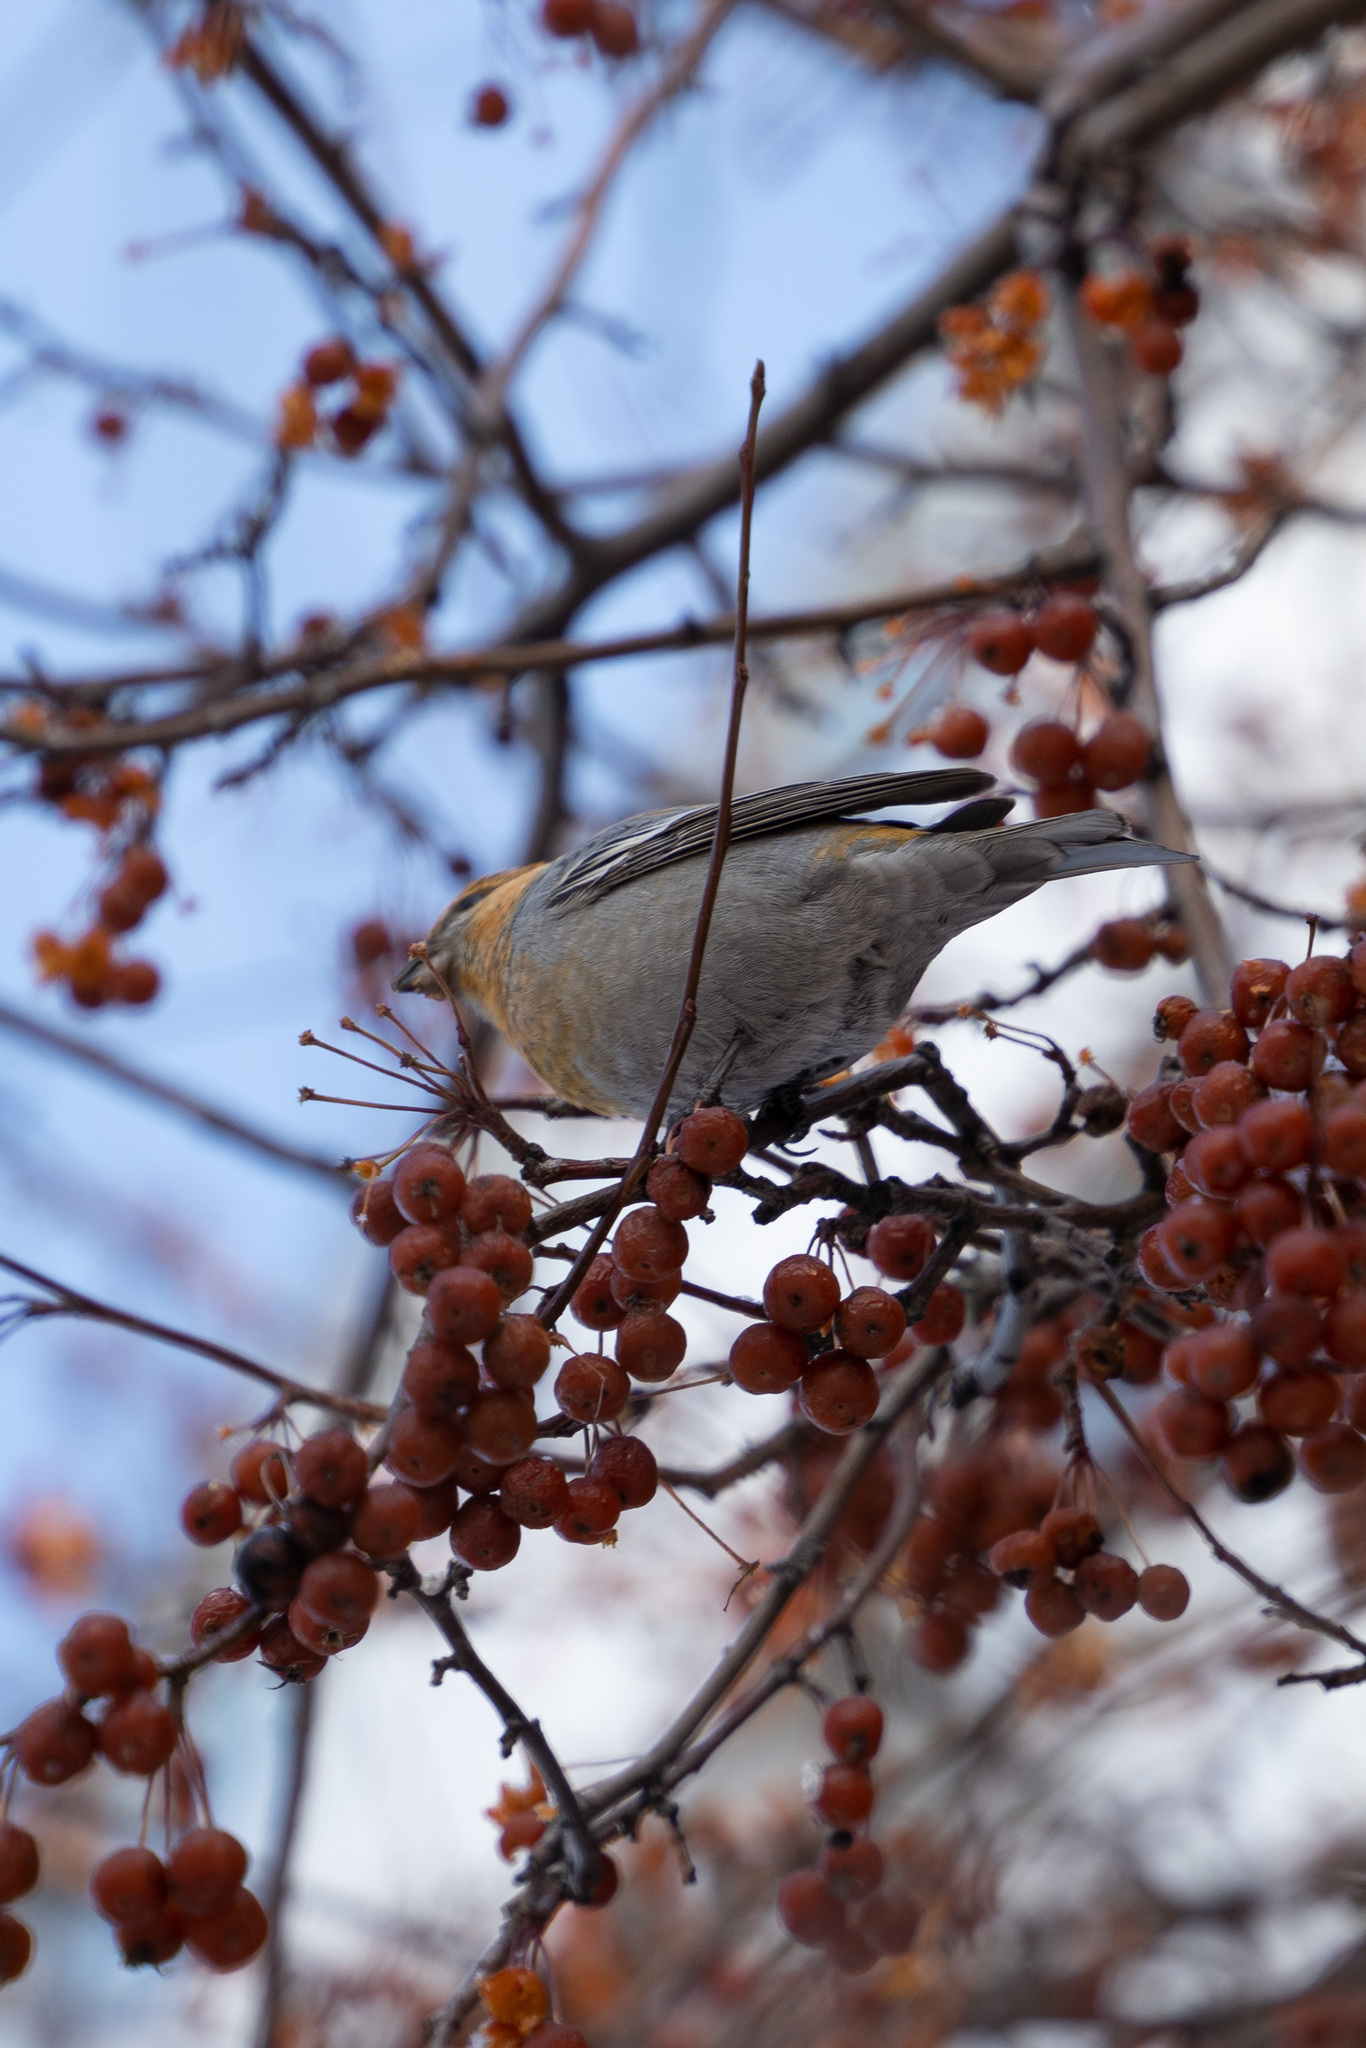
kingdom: Animalia
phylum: Chordata
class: Aves
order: Passeriformes
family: Fringillidae
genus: Pinicola
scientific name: Pinicola enucleator
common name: Pine grosbeak
